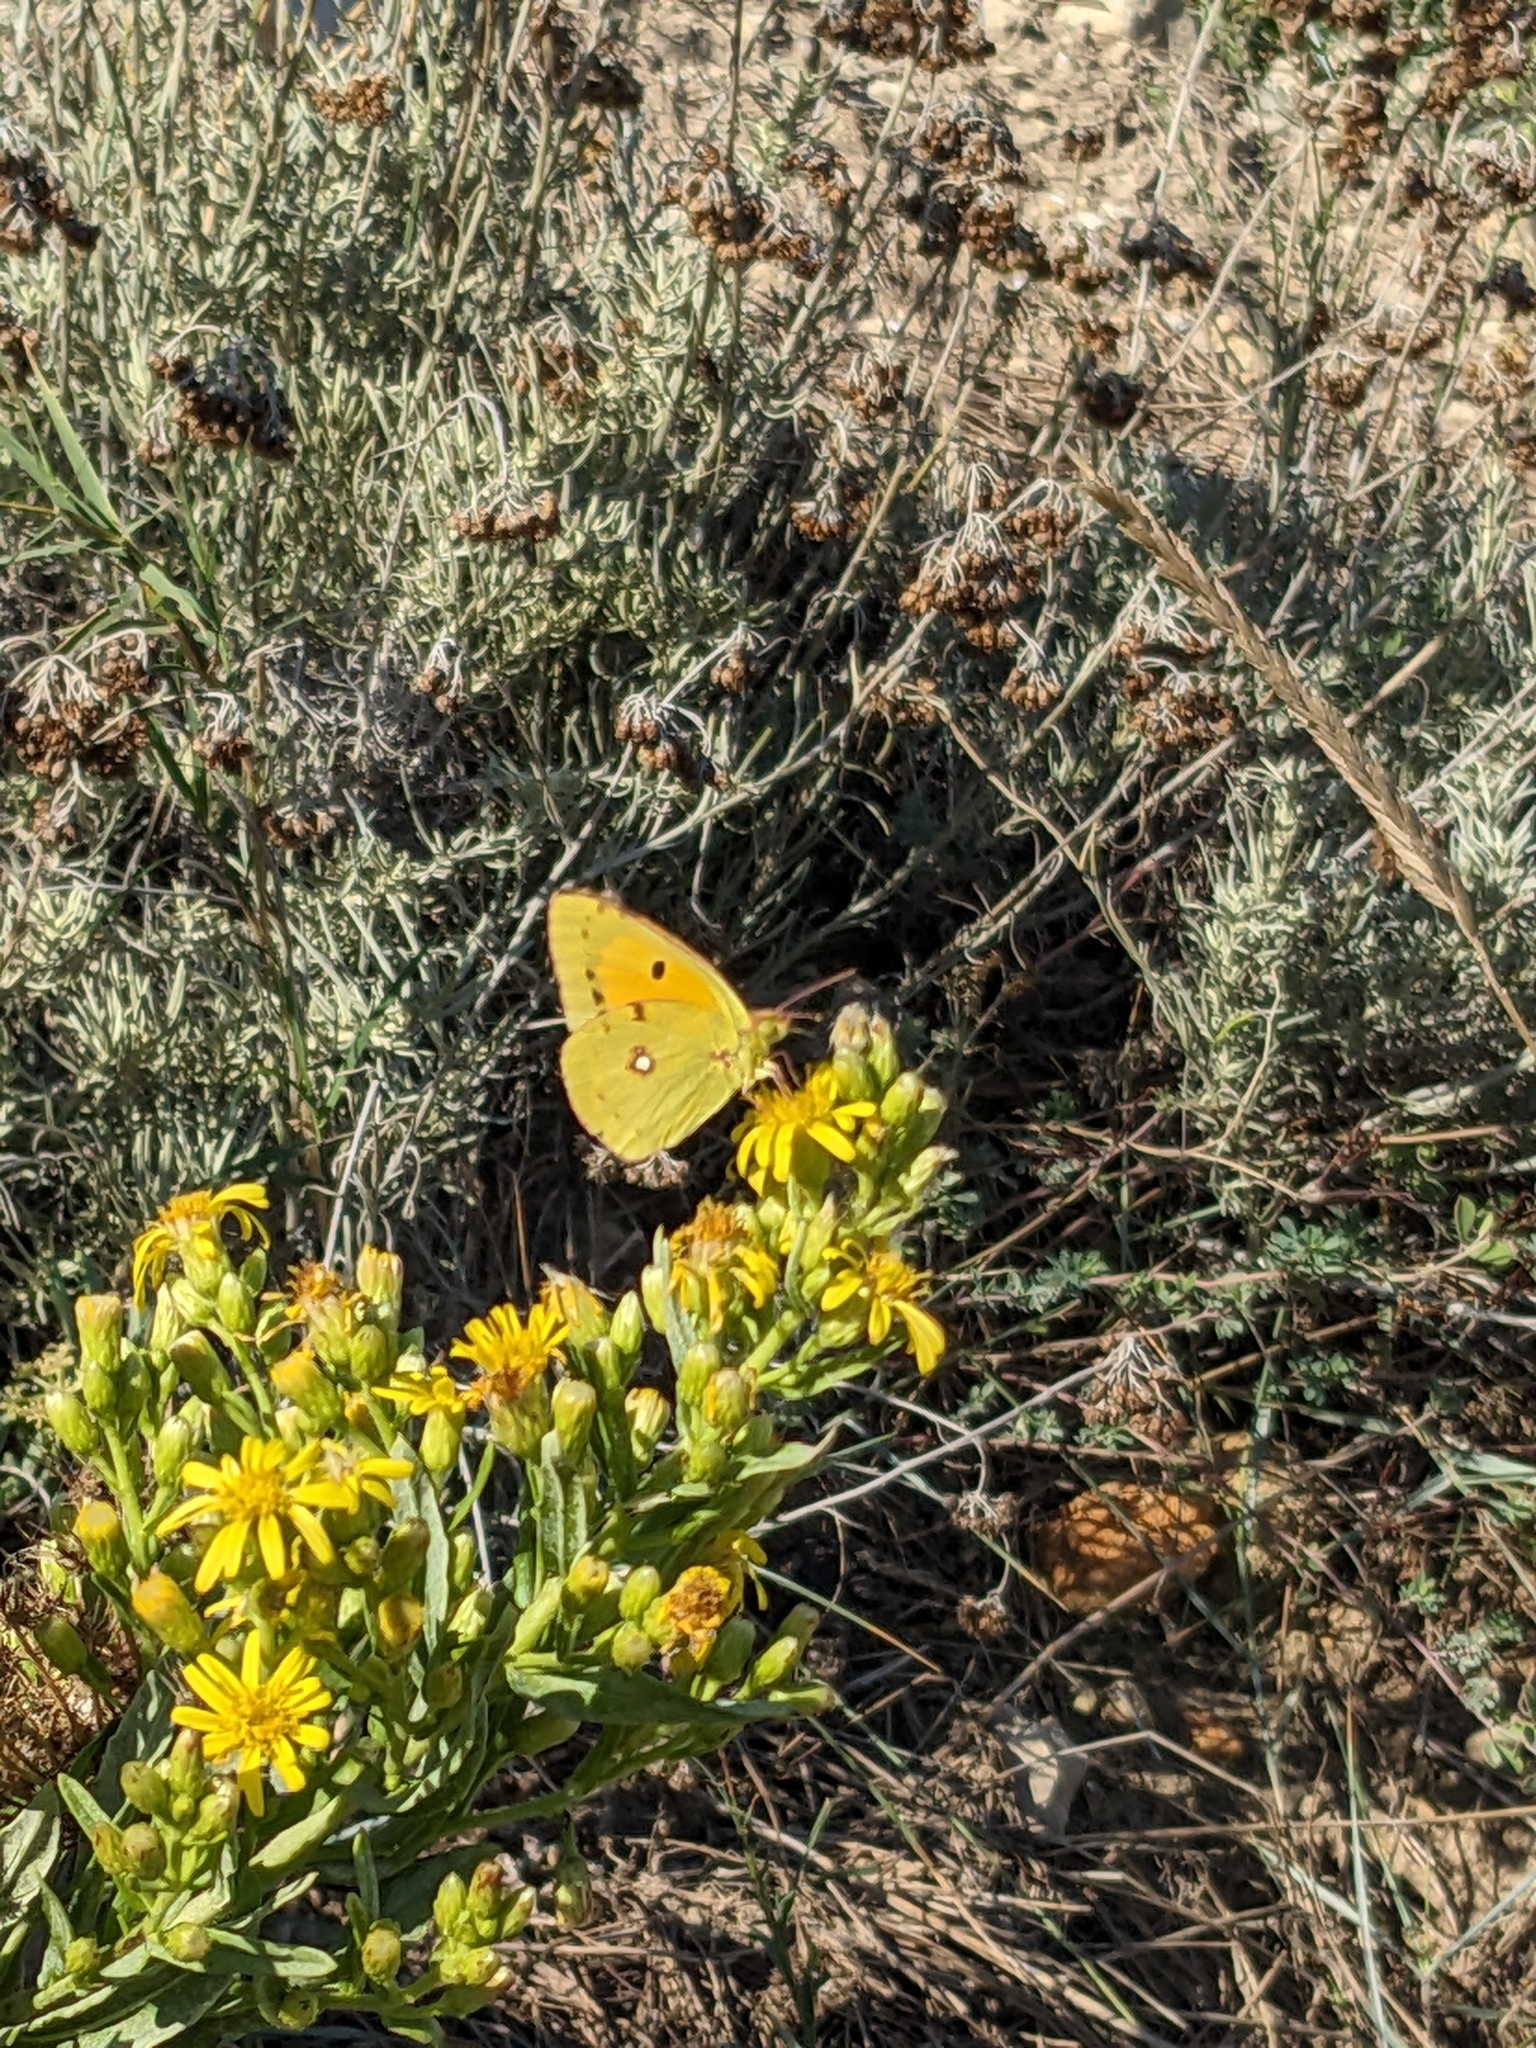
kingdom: Animalia
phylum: Arthropoda
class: Insecta
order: Lepidoptera
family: Pieridae
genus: Colias
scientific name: Colias croceus
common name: Clouded yellow
